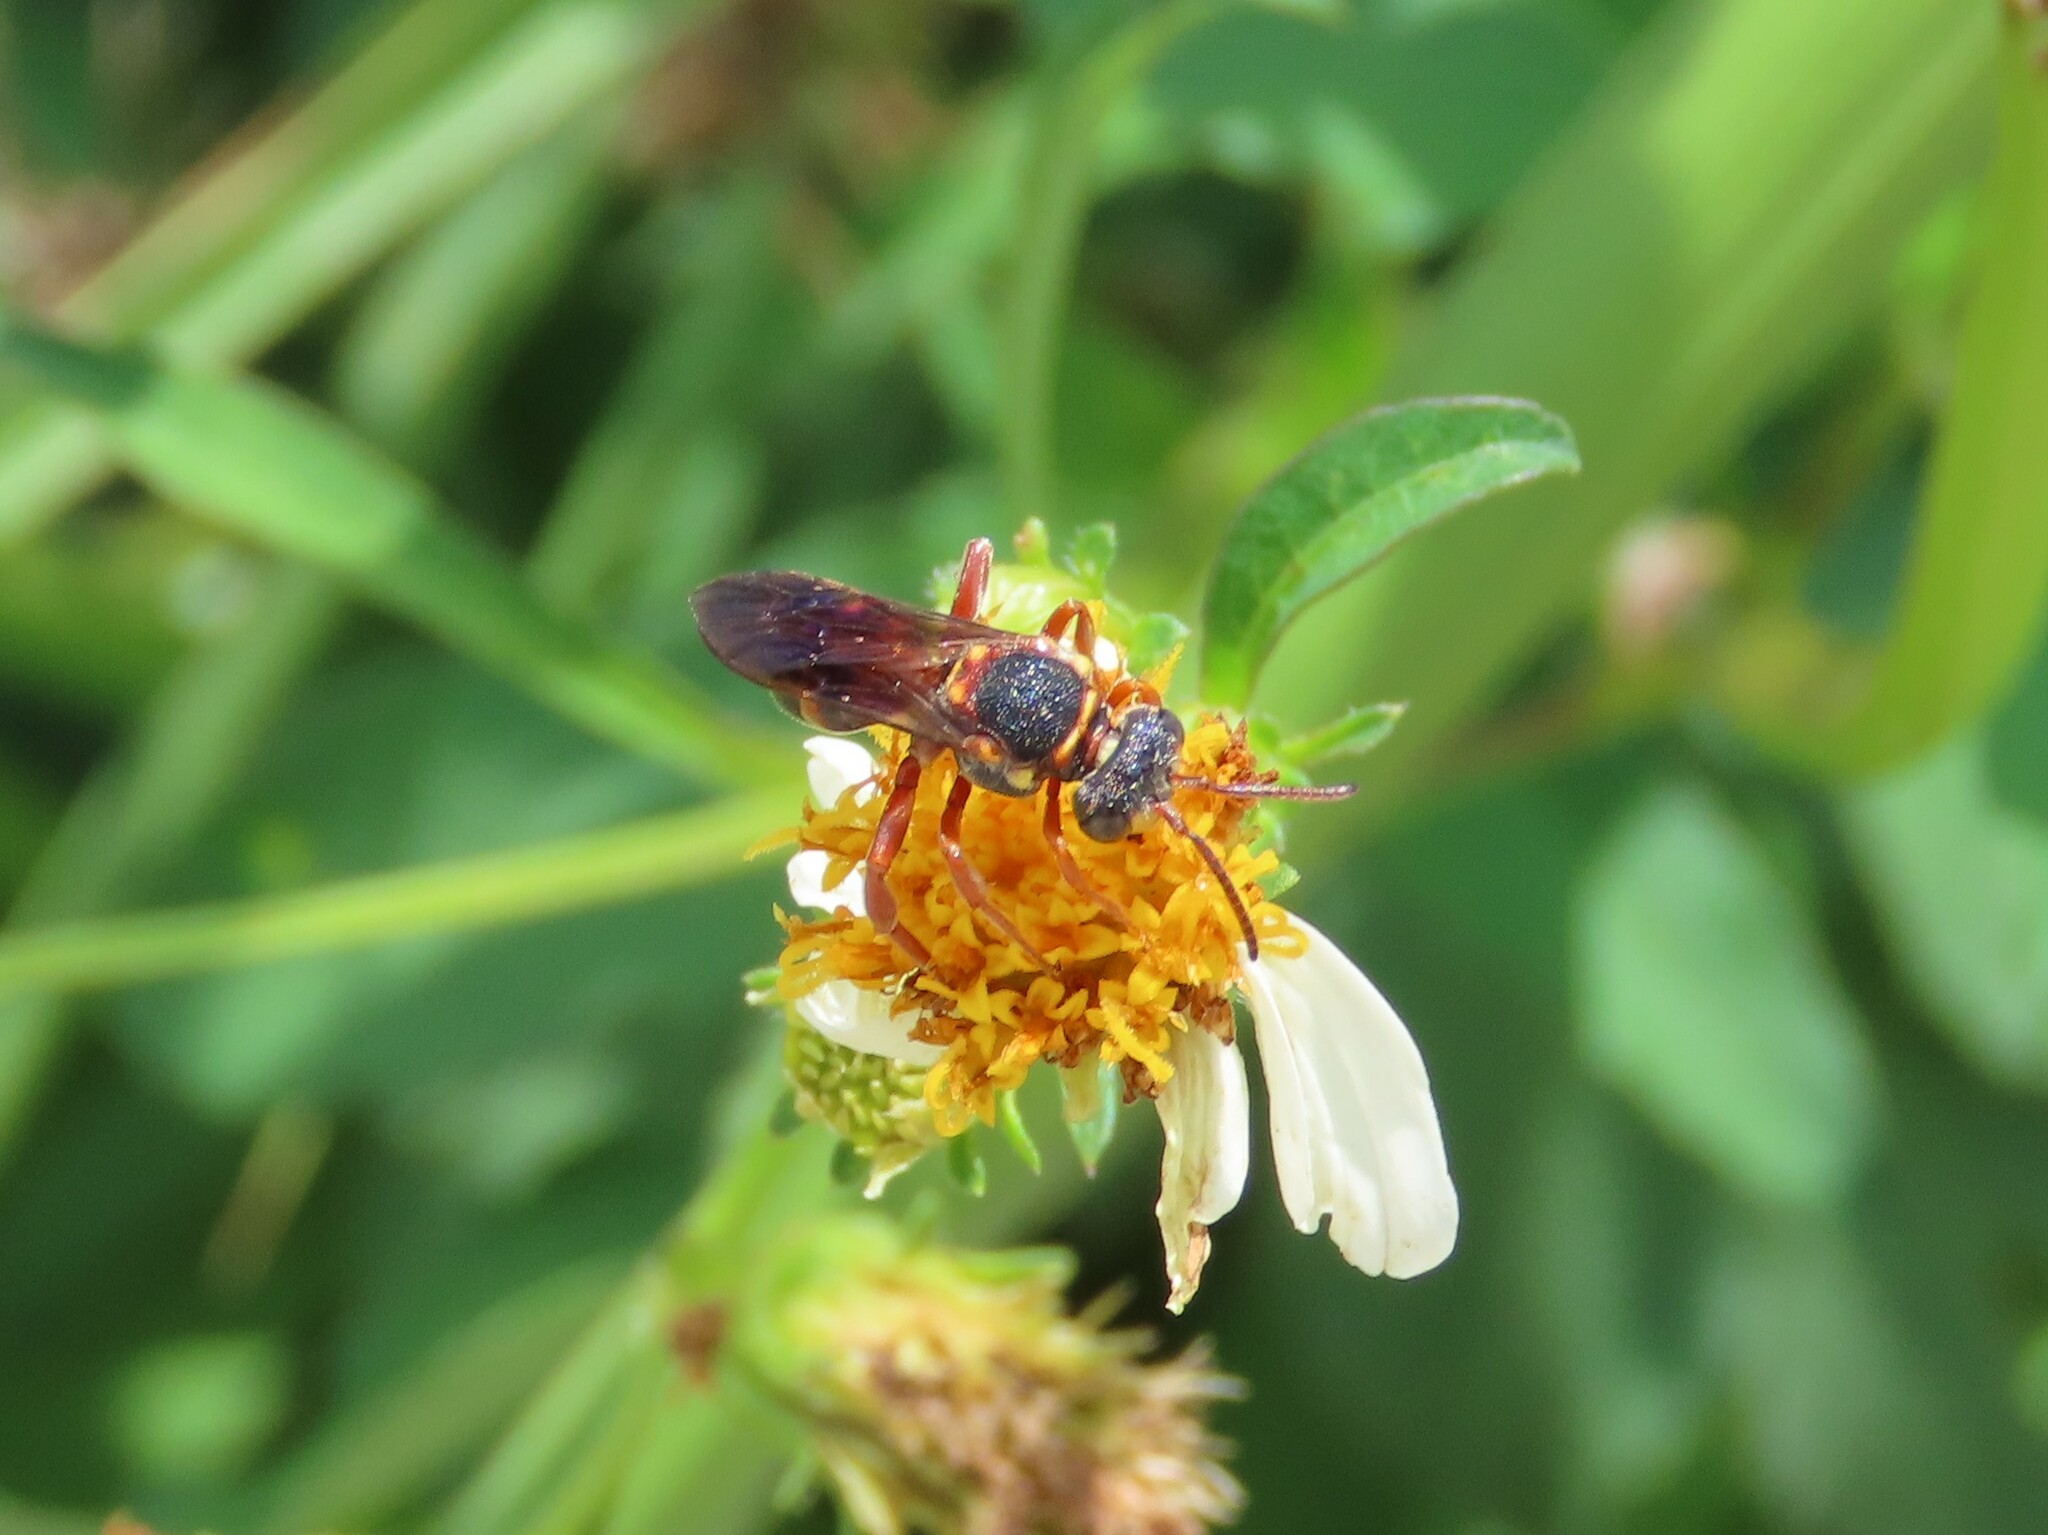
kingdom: Animalia
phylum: Arthropoda
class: Insecta
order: Hymenoptera
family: Apidae
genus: Nomada
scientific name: Nomada fervida
